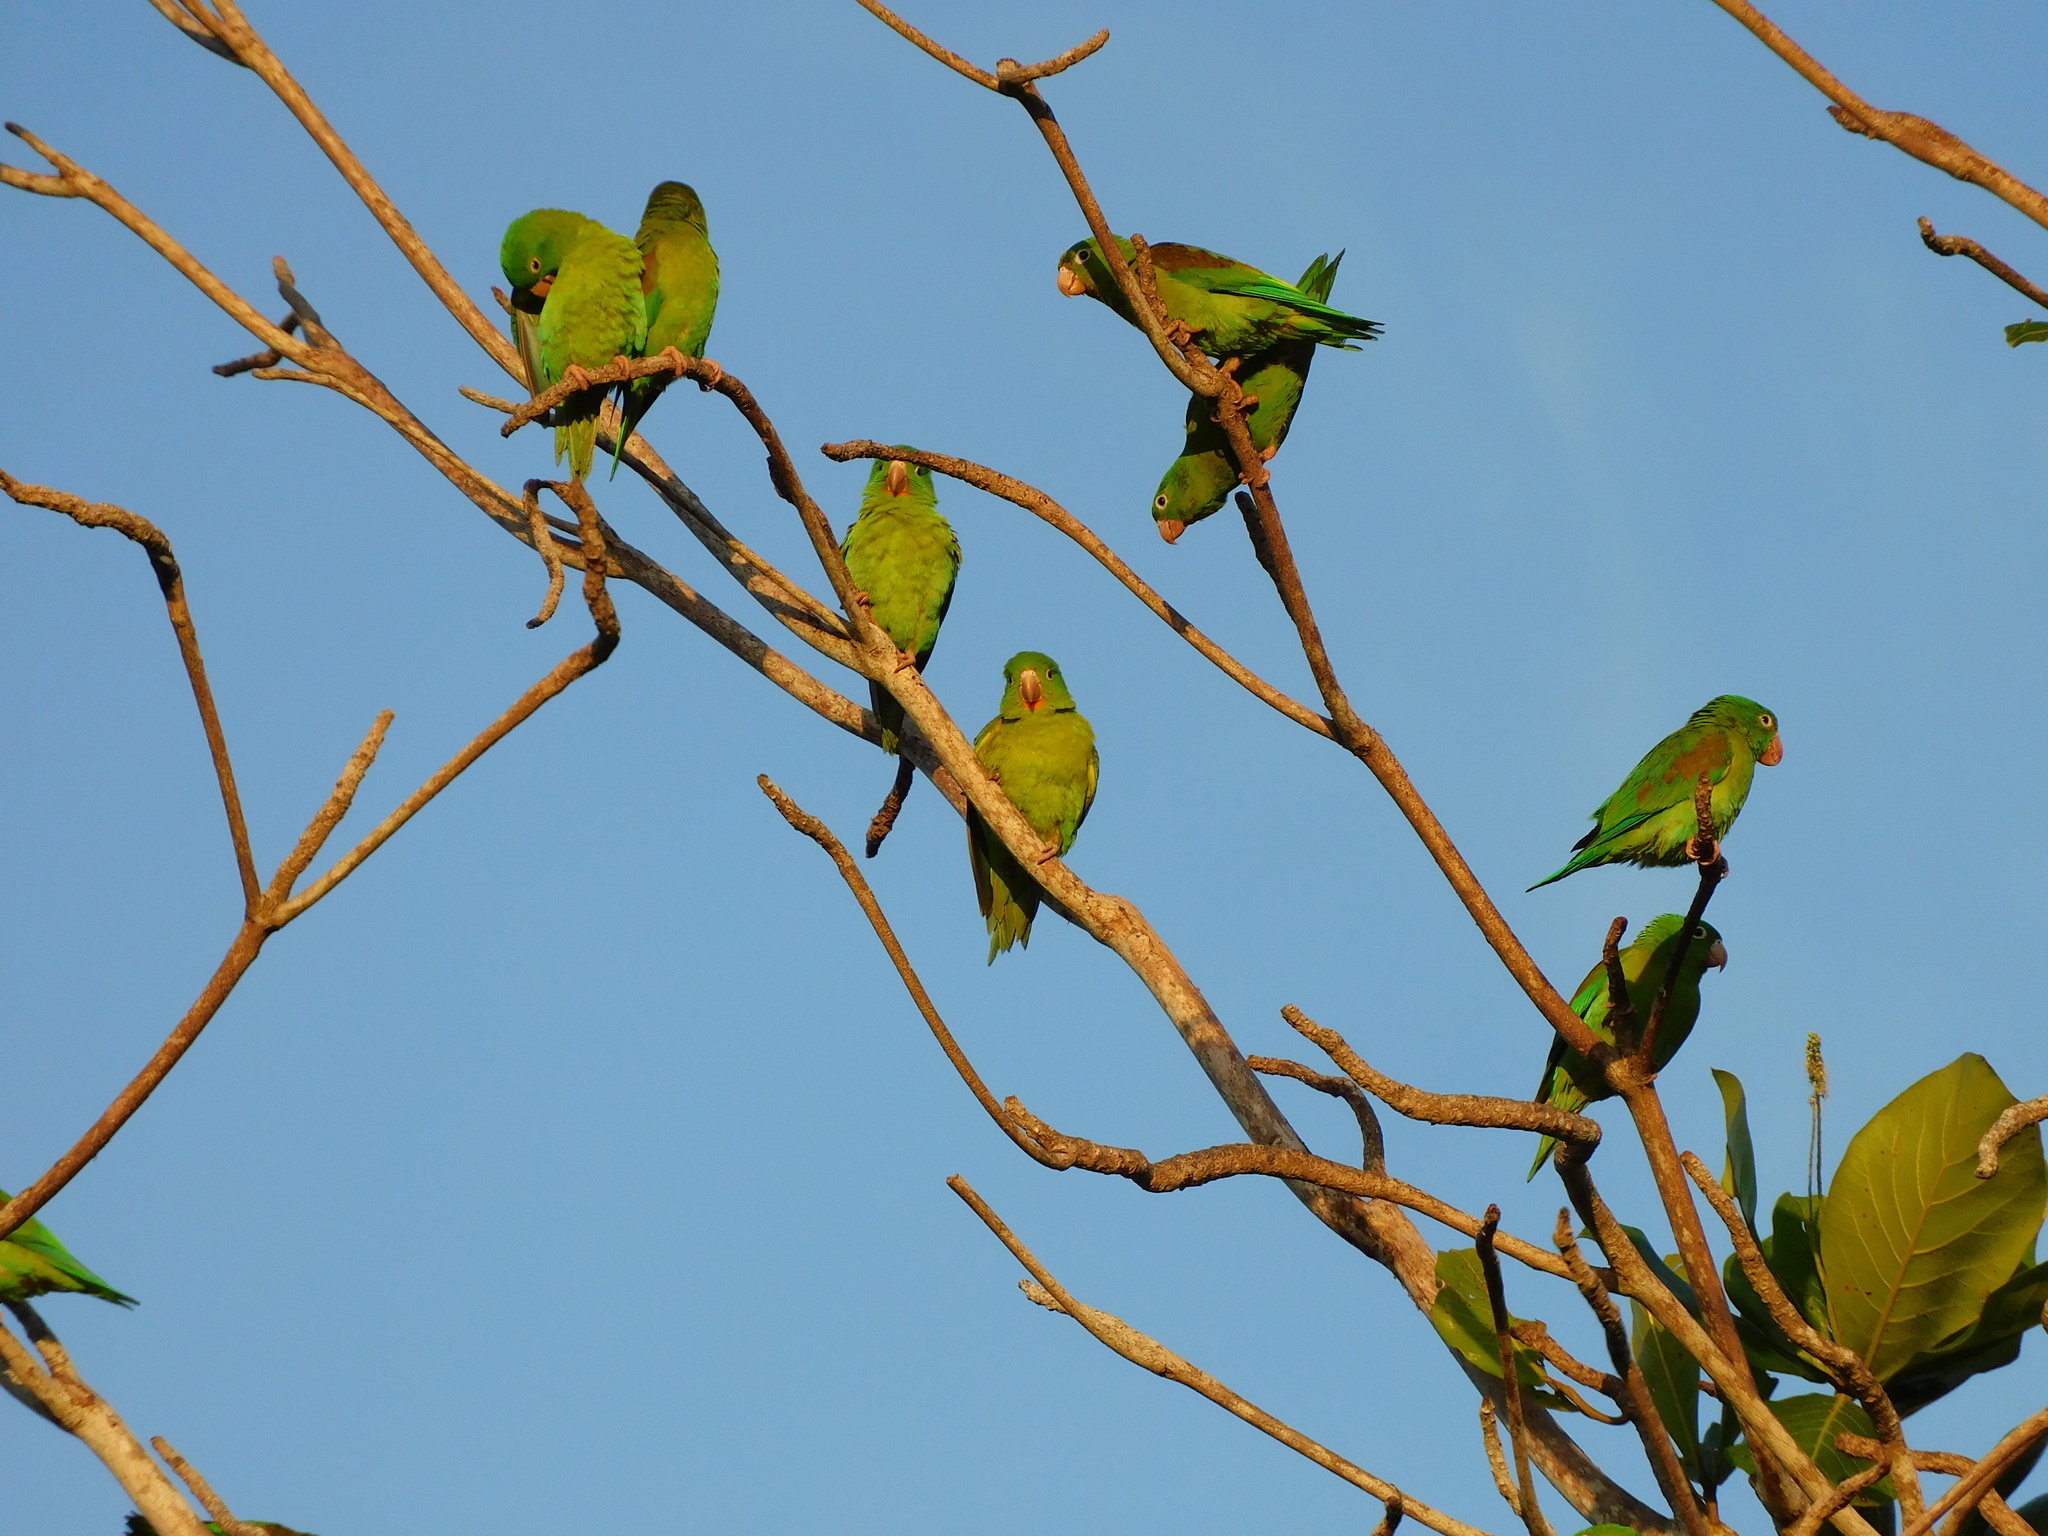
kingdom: Animalia
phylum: Chordata
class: Aves
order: Psittaciformes
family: Psittacidae
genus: Brotogeris
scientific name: Brotogeris jugularis
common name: Orange-chinned parakeet
